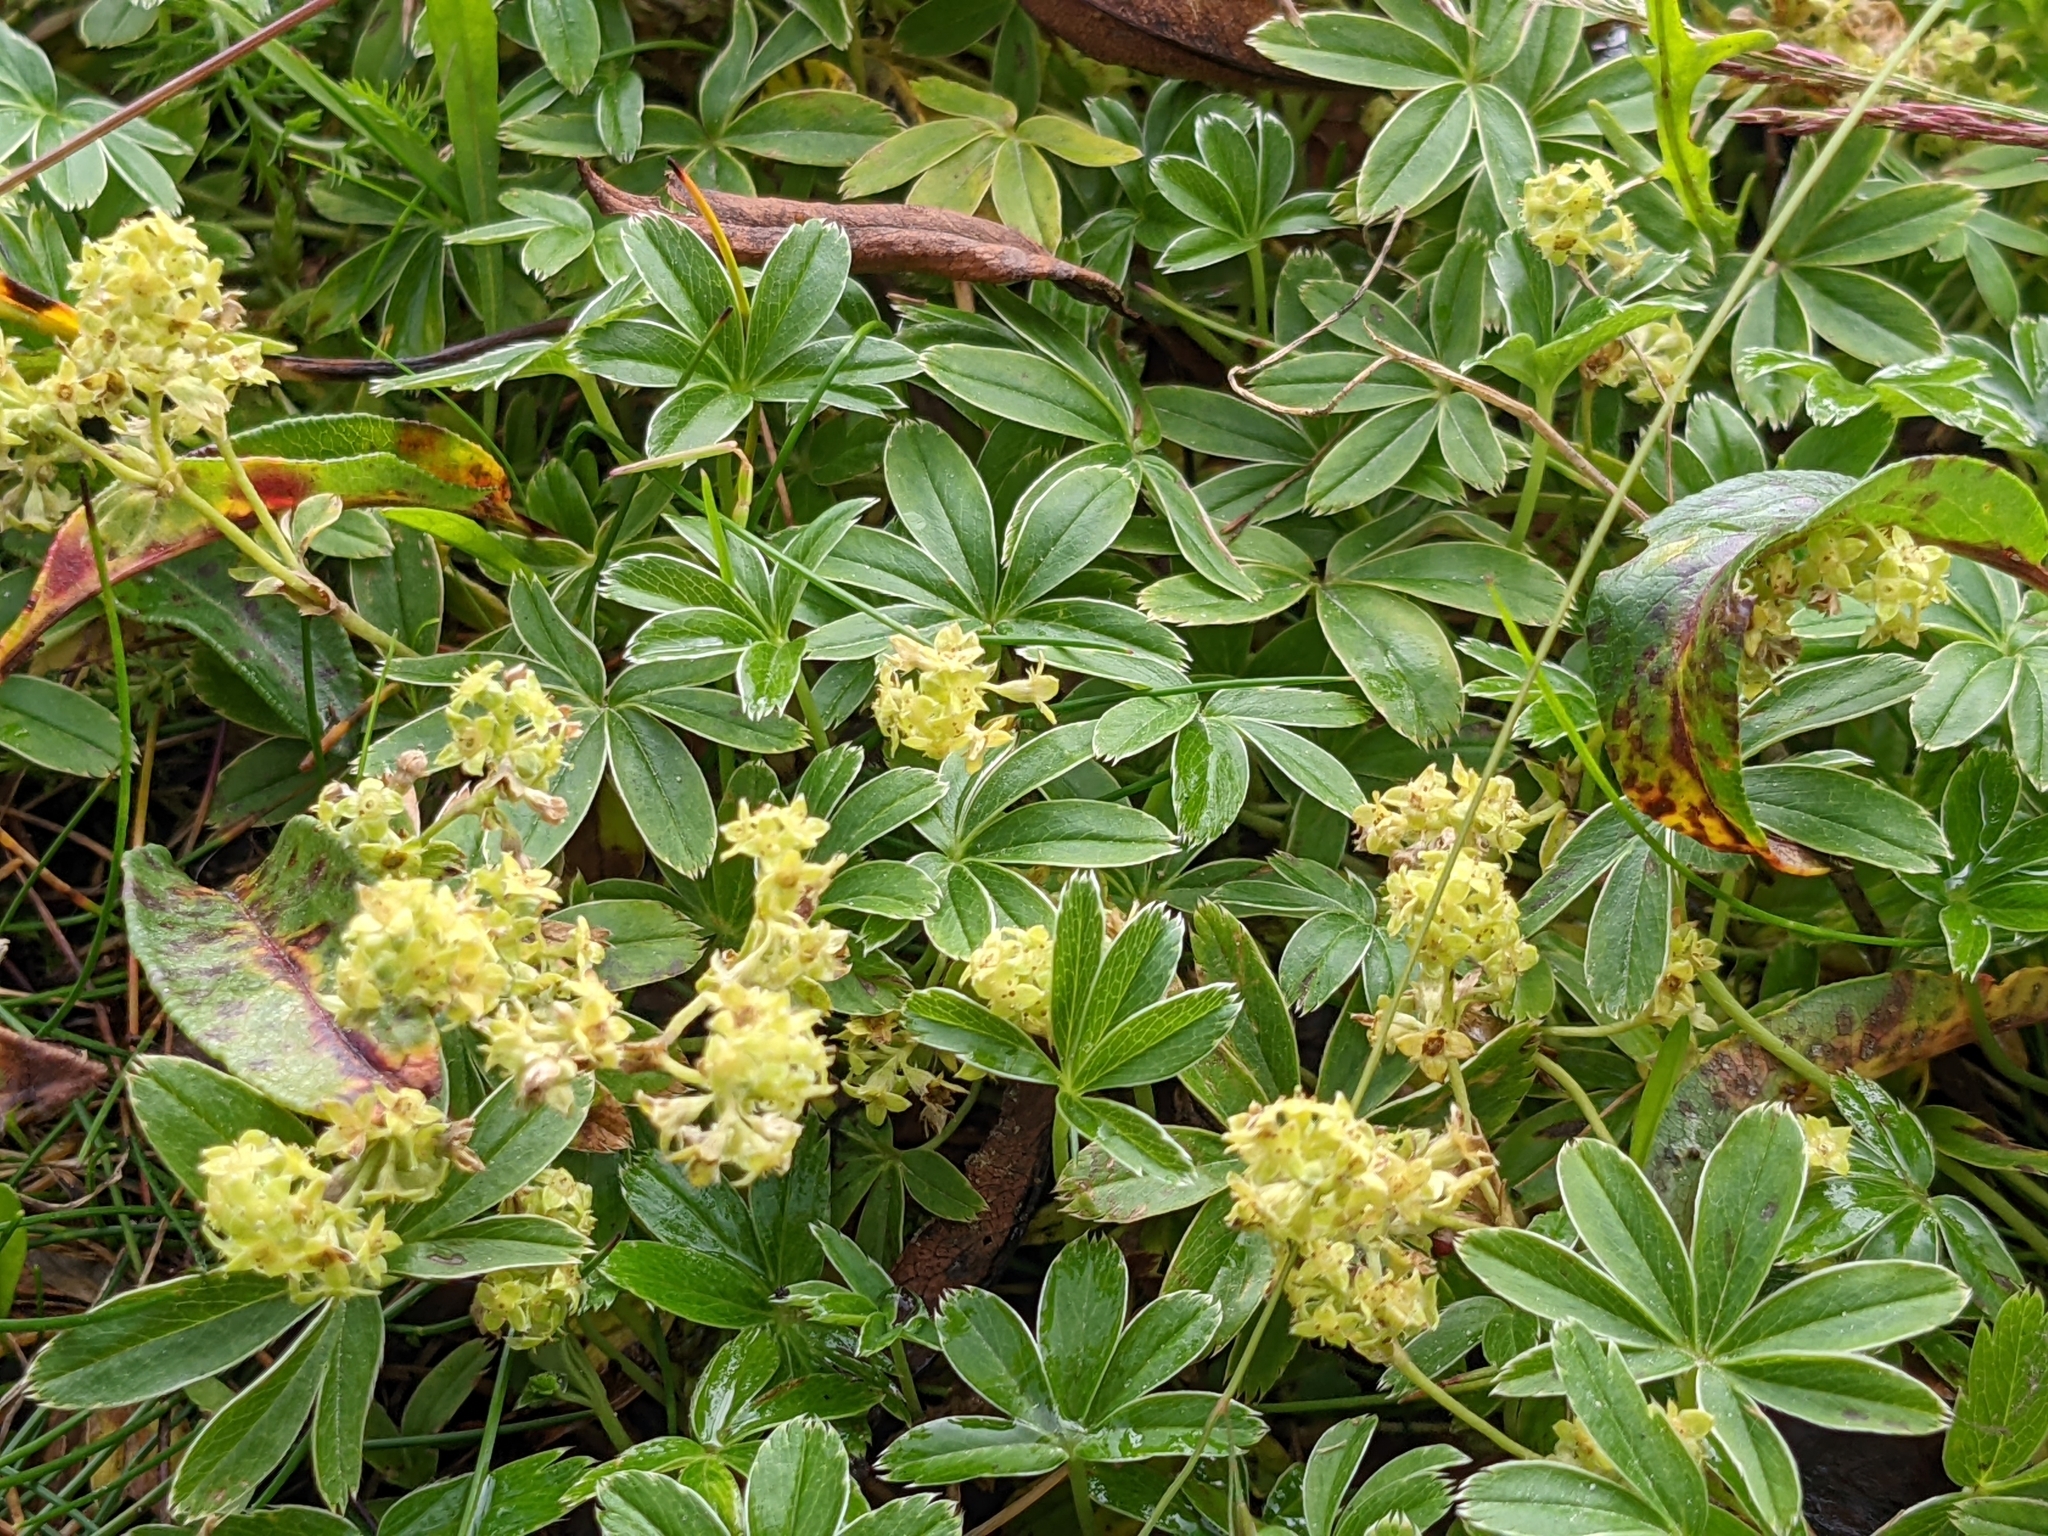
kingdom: Plantae
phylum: Tracheophyta
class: Magnoliopsida
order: Rosales
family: Rosaceae
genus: Alchemilla
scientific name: Alchemilla alpina
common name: Alpine lady's-mantle
